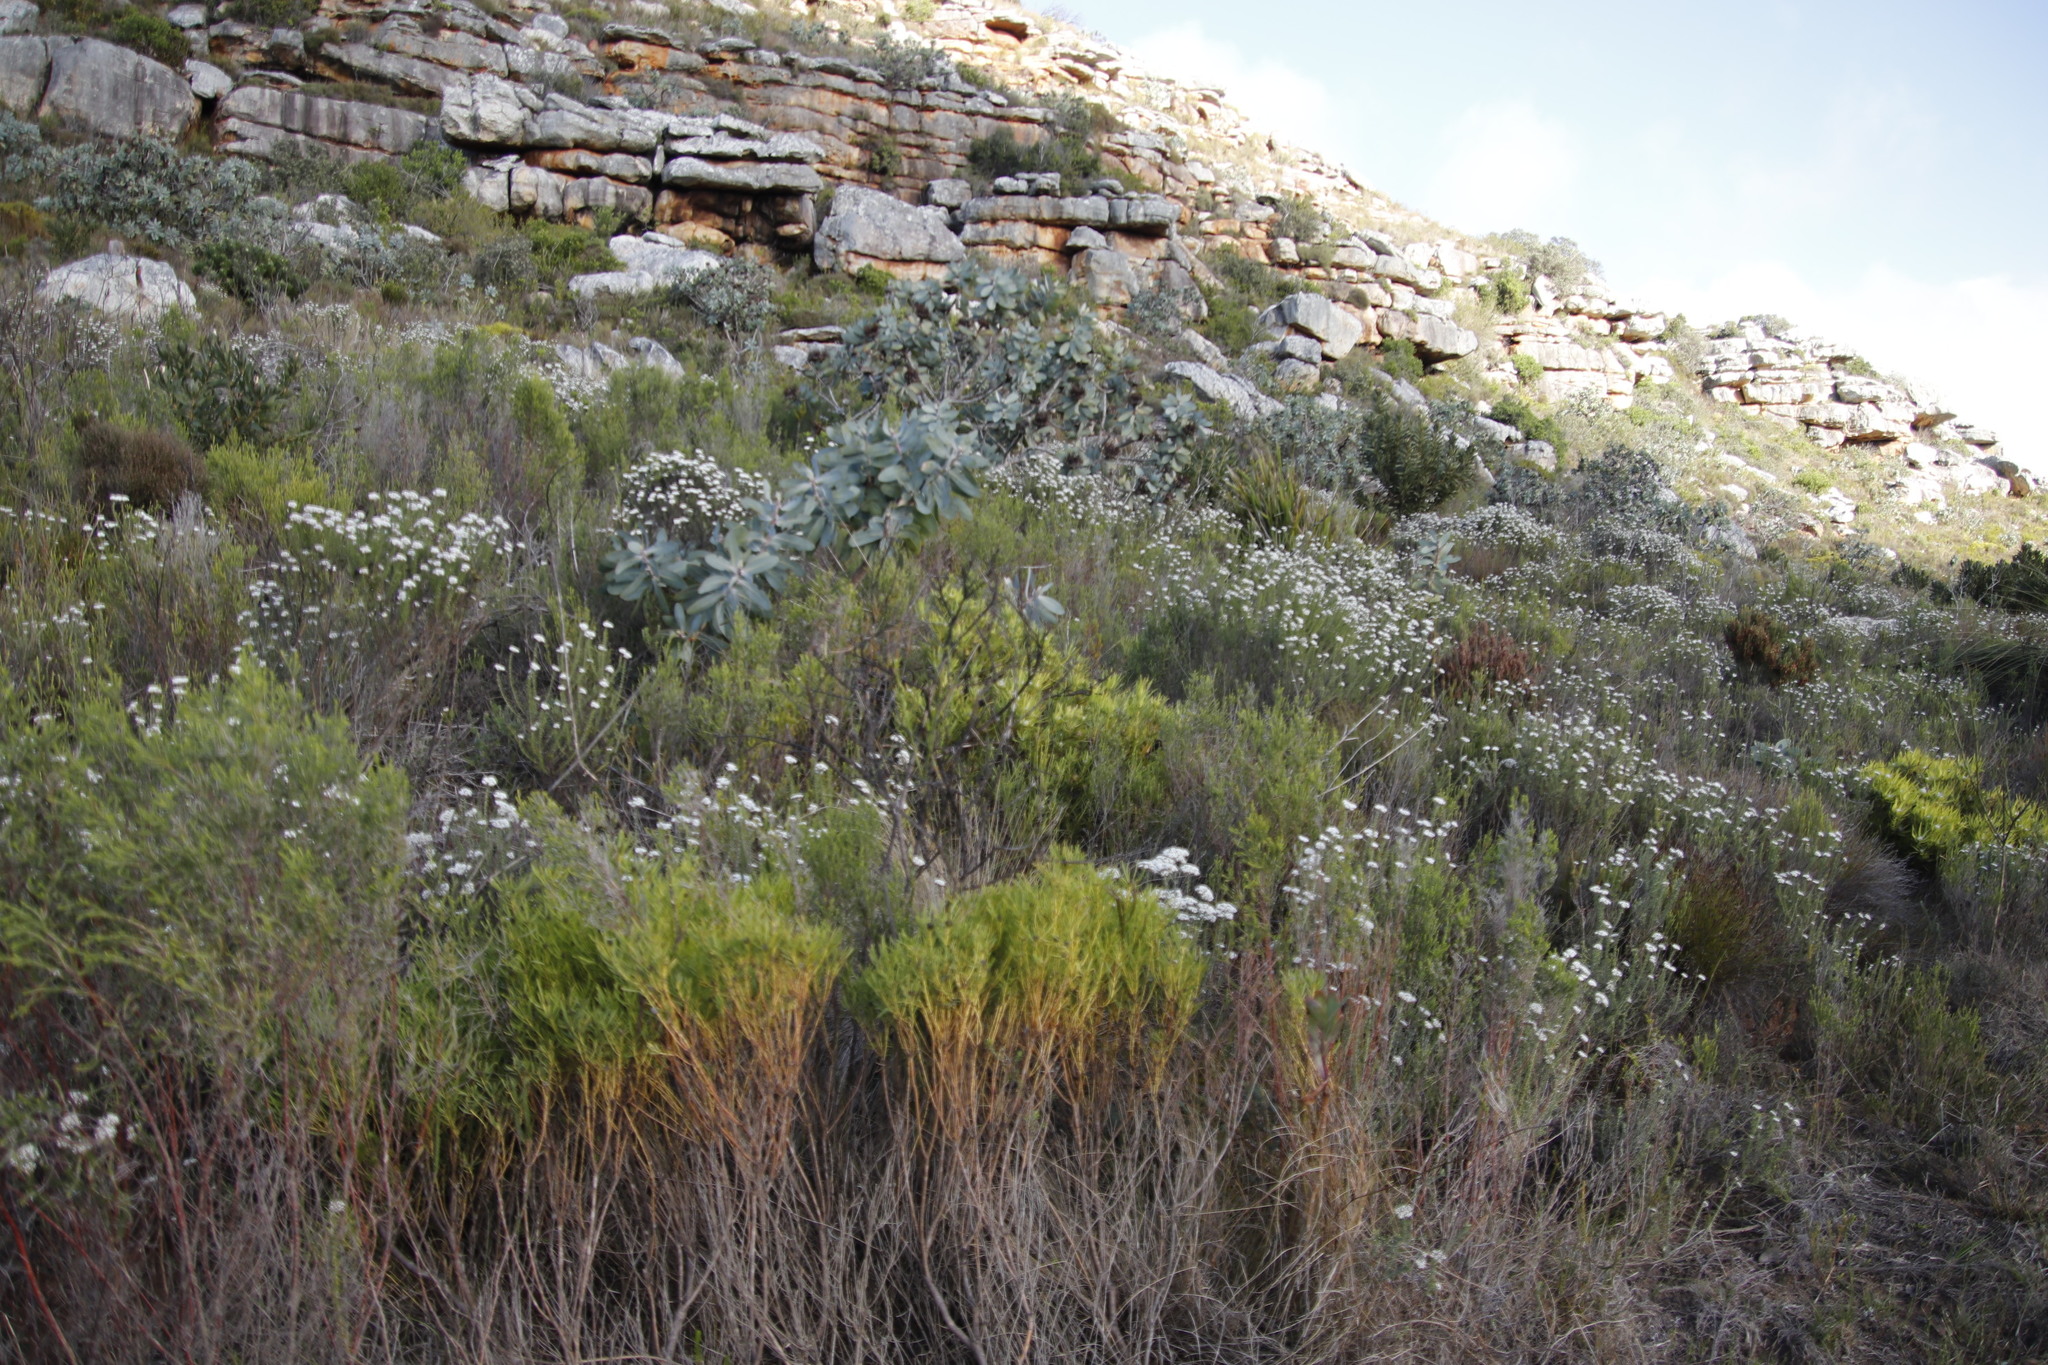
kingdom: Plantae
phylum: Tracheophyta
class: Magnoliopsida
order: Asterales
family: Asteraceae
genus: Metalasia
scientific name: Metalasia densa
